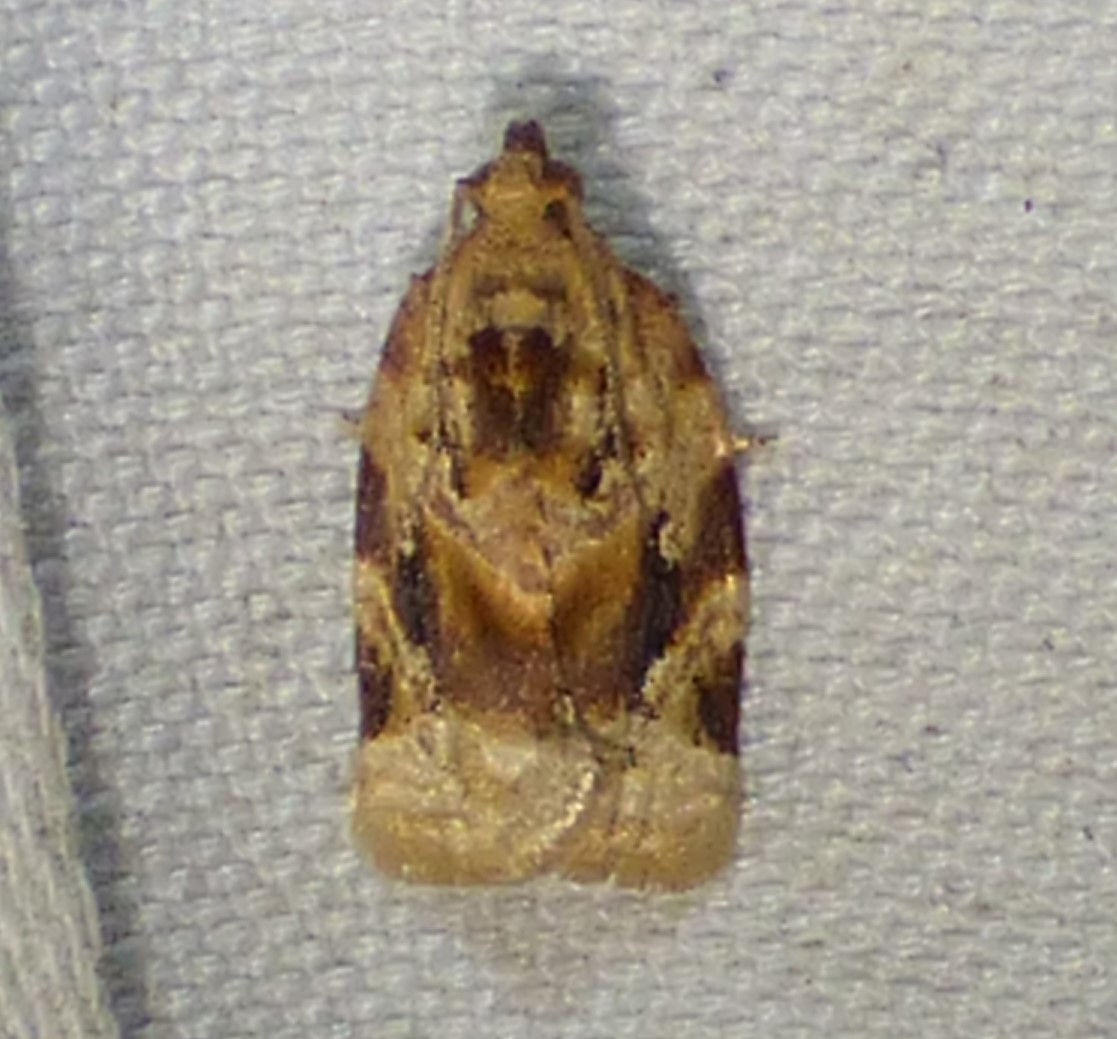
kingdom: Animalia
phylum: Arthropoda
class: Insecta
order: Lepidoptera
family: Tortricidae
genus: Argyrotaenia
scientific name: Argyrotaenia velutinana
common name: Red-banded leafroller moth
